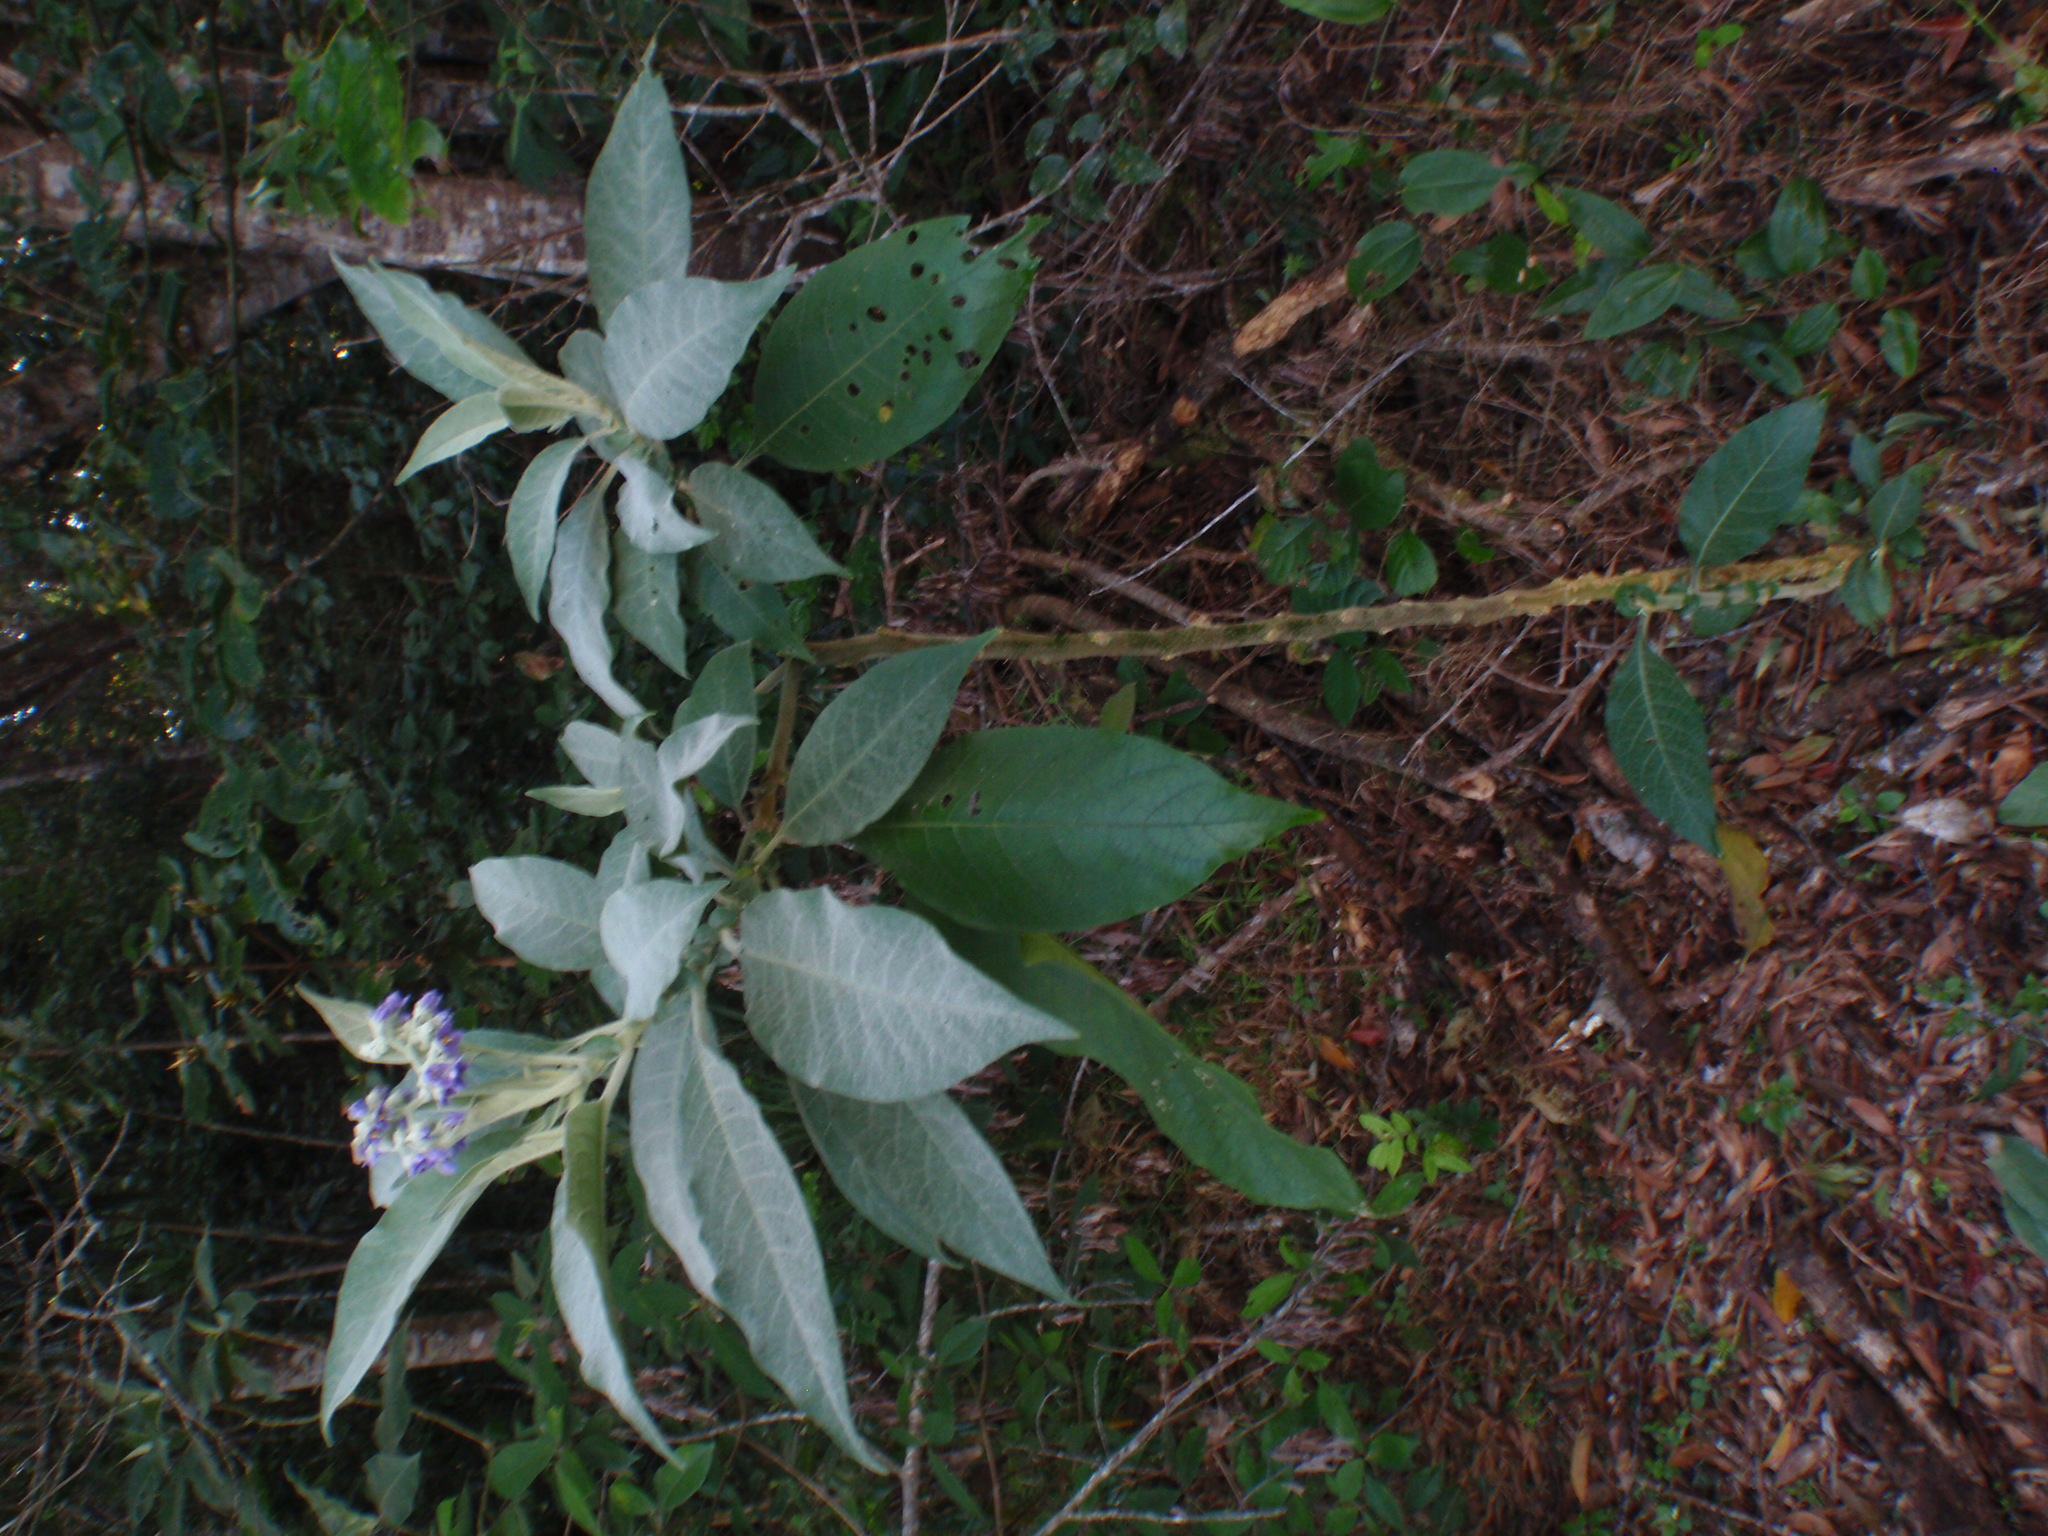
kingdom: Plantae
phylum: Tracheophyta
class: Magnoliopsida
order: Solanales
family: Solanaceae
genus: Solanum
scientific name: Solanum mauritianum
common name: Earleaf nightshade
